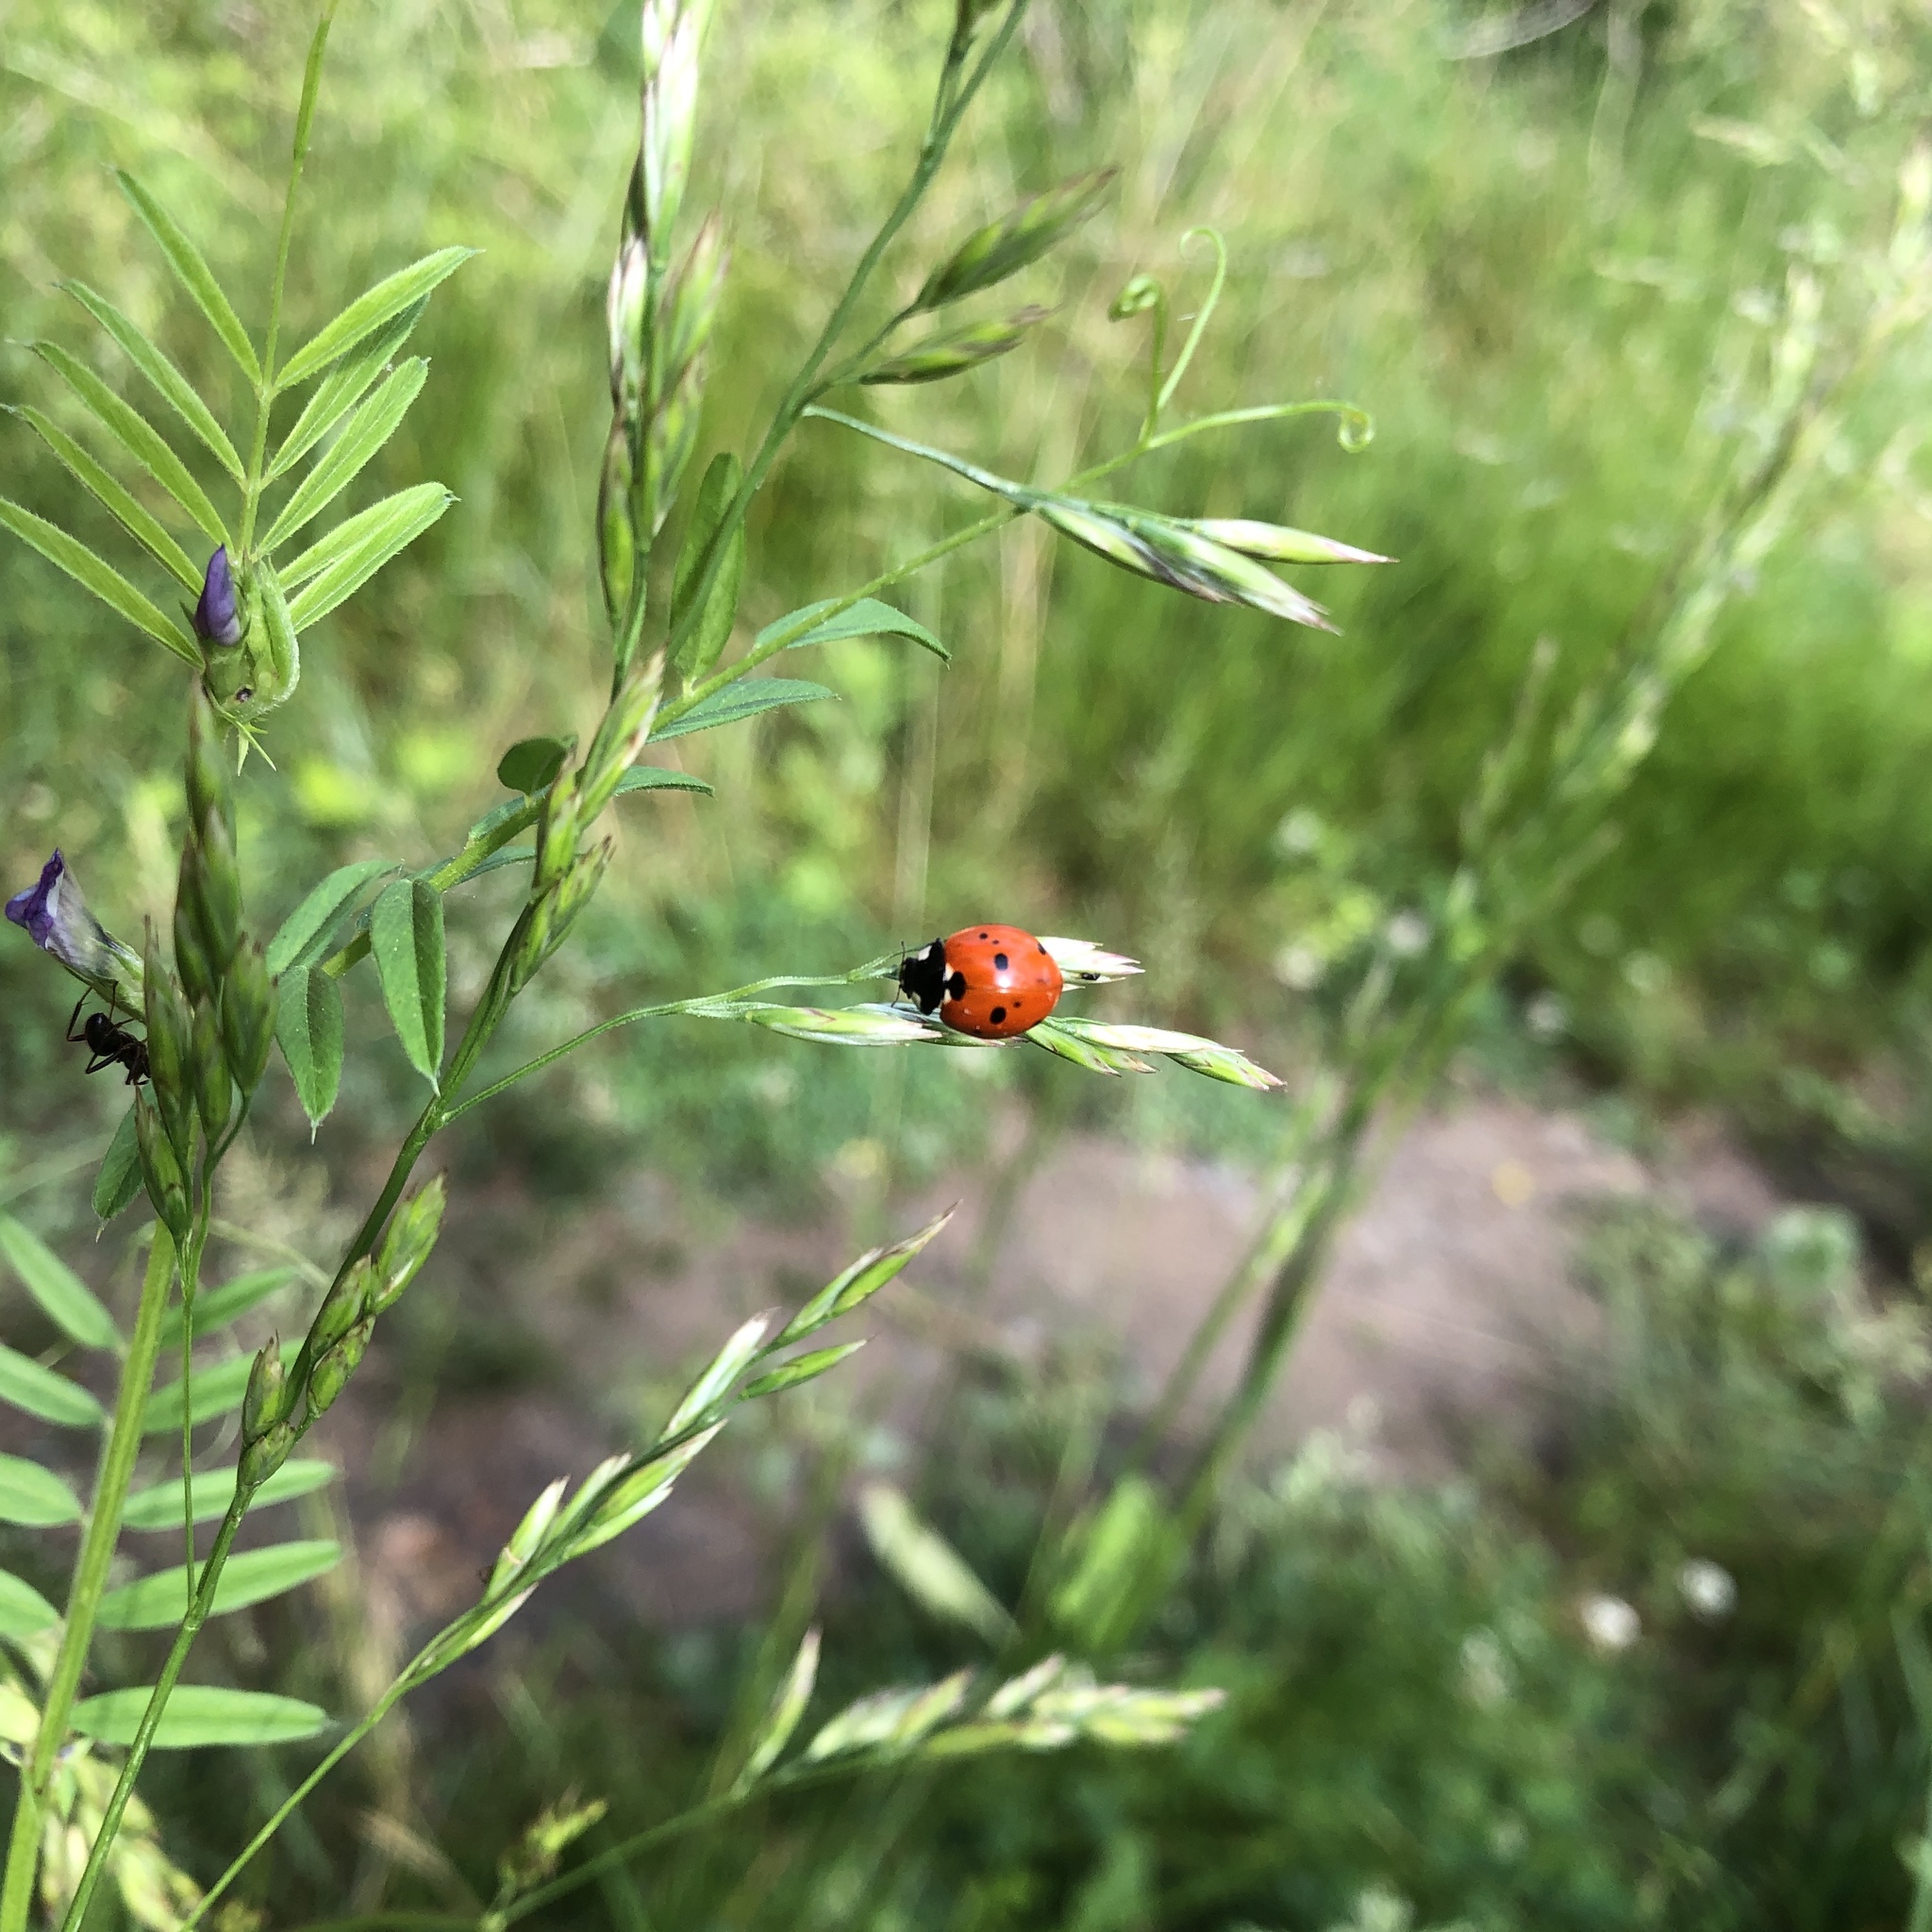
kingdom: Animalia
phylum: Arthropoda
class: Insecta
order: Coleoptera
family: Coccinellidae
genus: Coccinella
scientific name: Coccinella septempunctata
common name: Sevenspotted lady beetle
